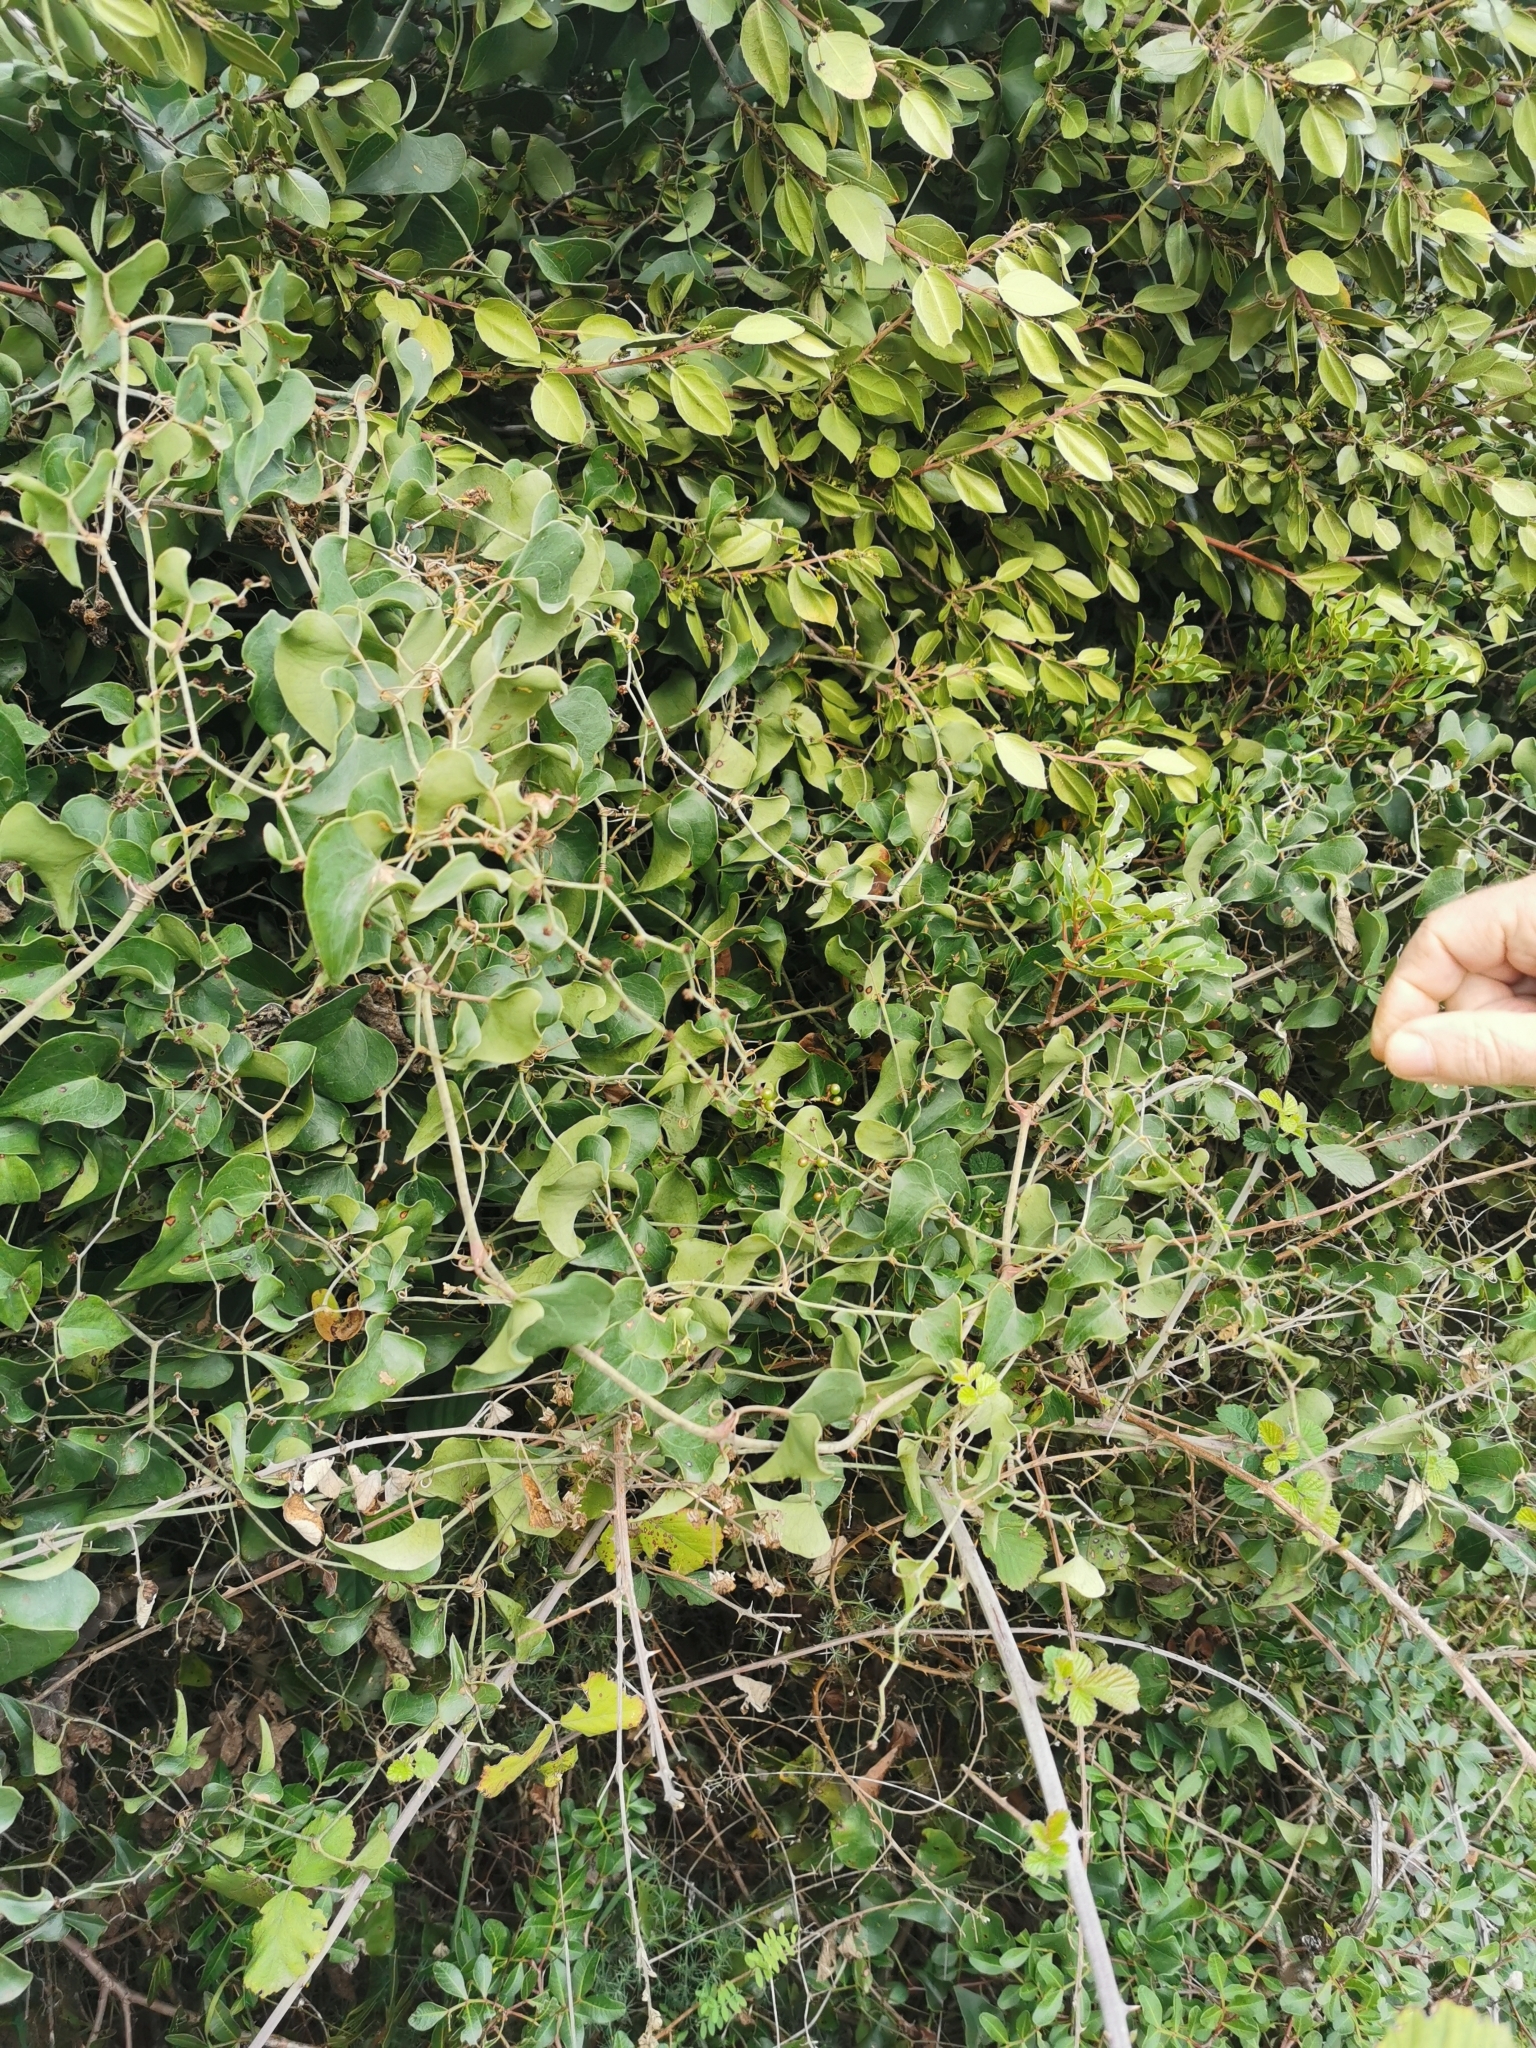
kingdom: Plantae
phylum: Tracheophyta
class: Liliopsida
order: Liliales
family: Smilacaceae
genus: Smilax
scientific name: Smilax aspera
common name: Common smilax
